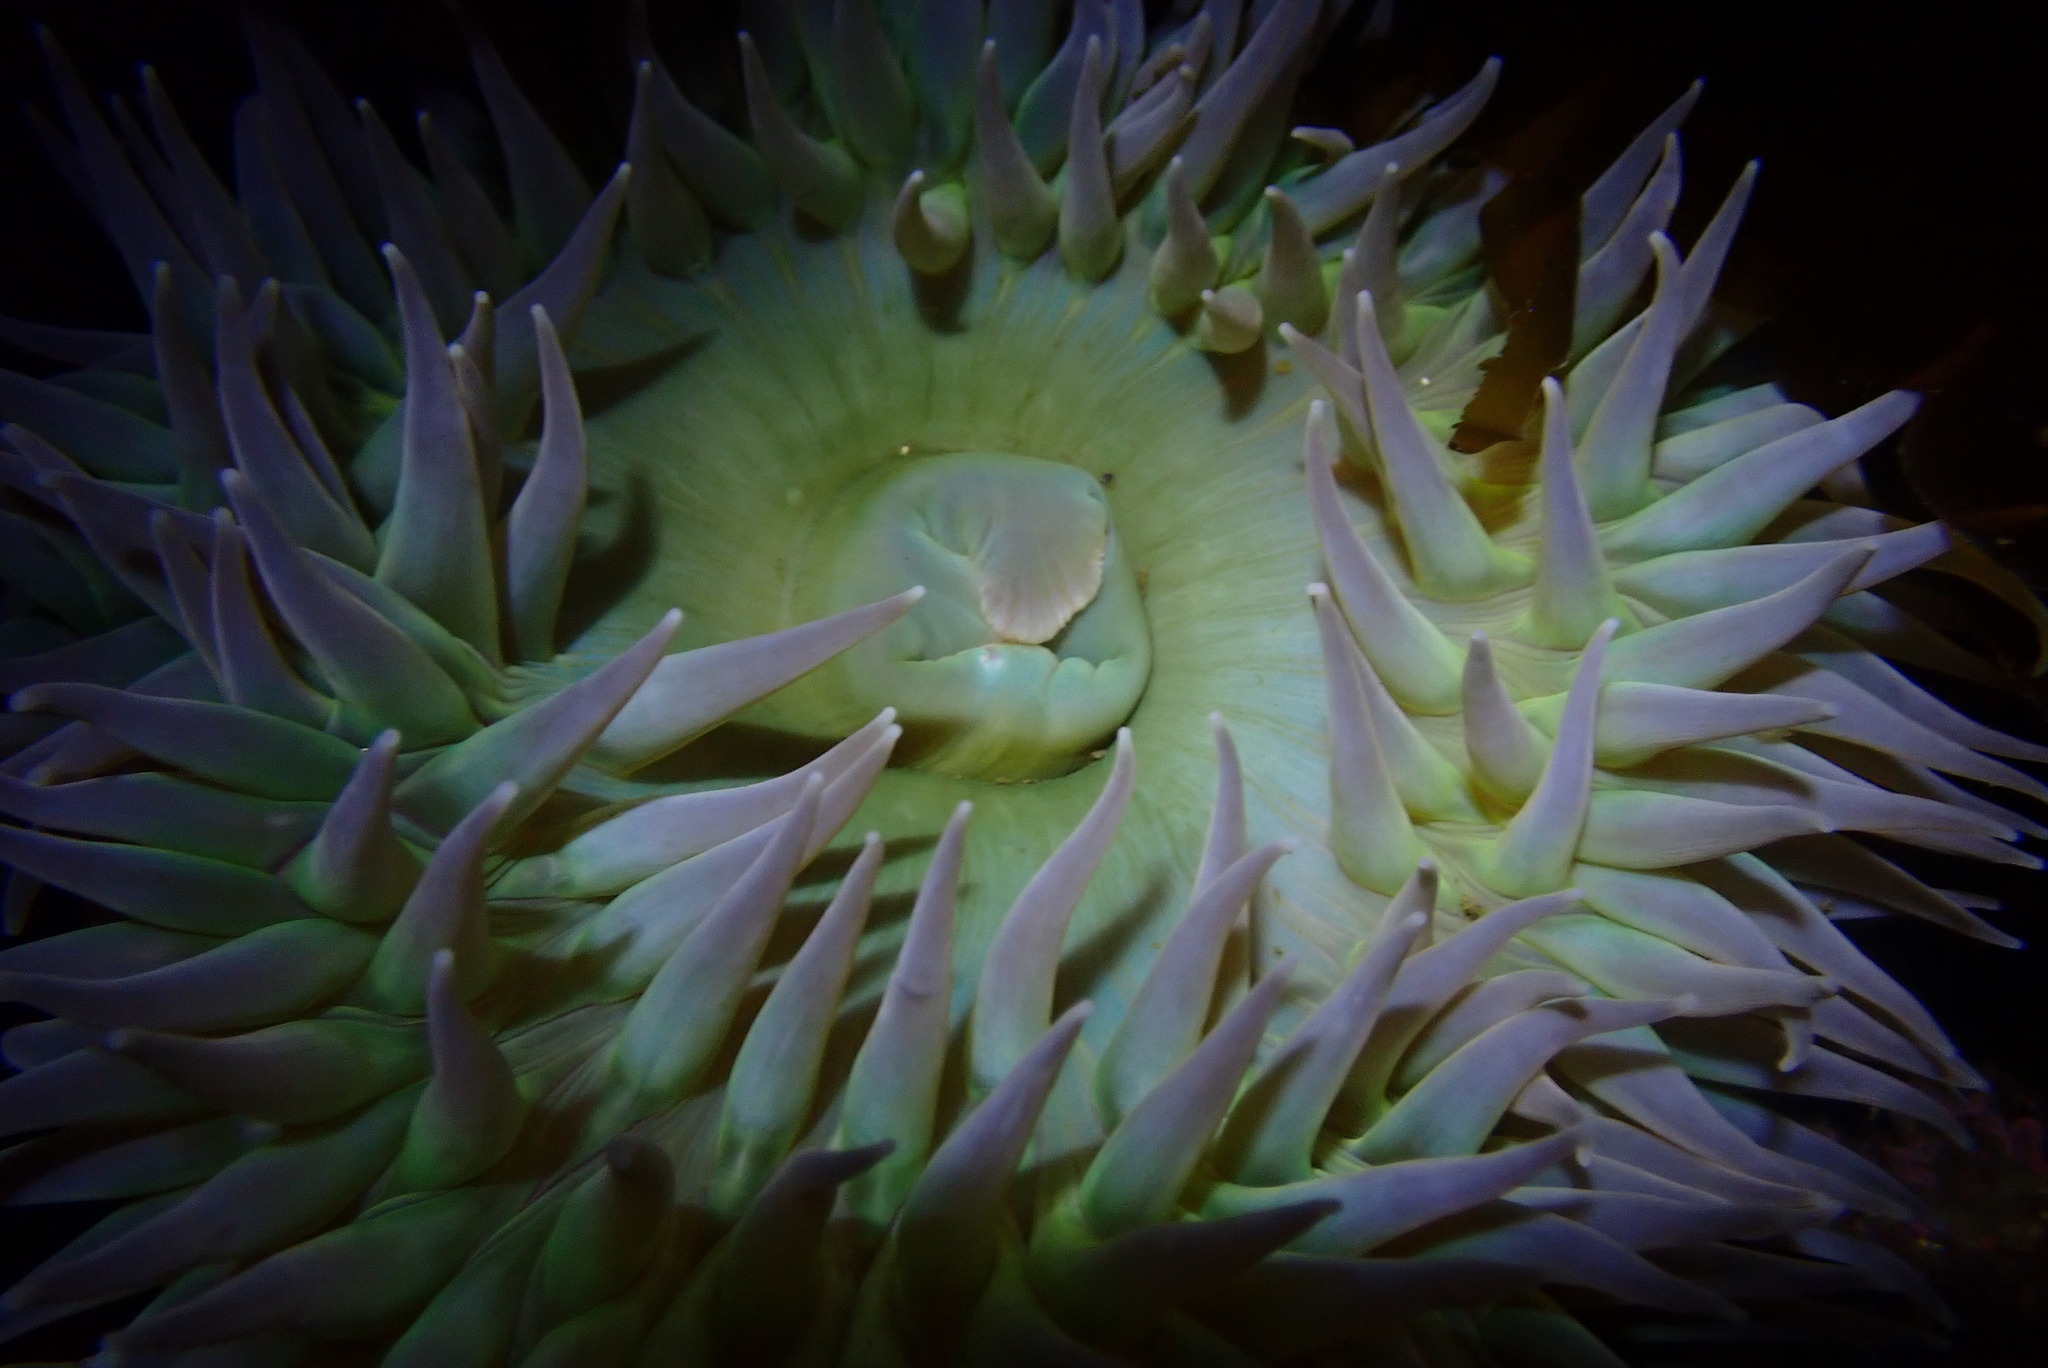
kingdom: Animalia
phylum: Cnidaria
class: Anthozoa
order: Actiniaria
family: Actiniidae
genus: Anthopleura
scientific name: Anthopleura xanthogrammica
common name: Giant green anemone
